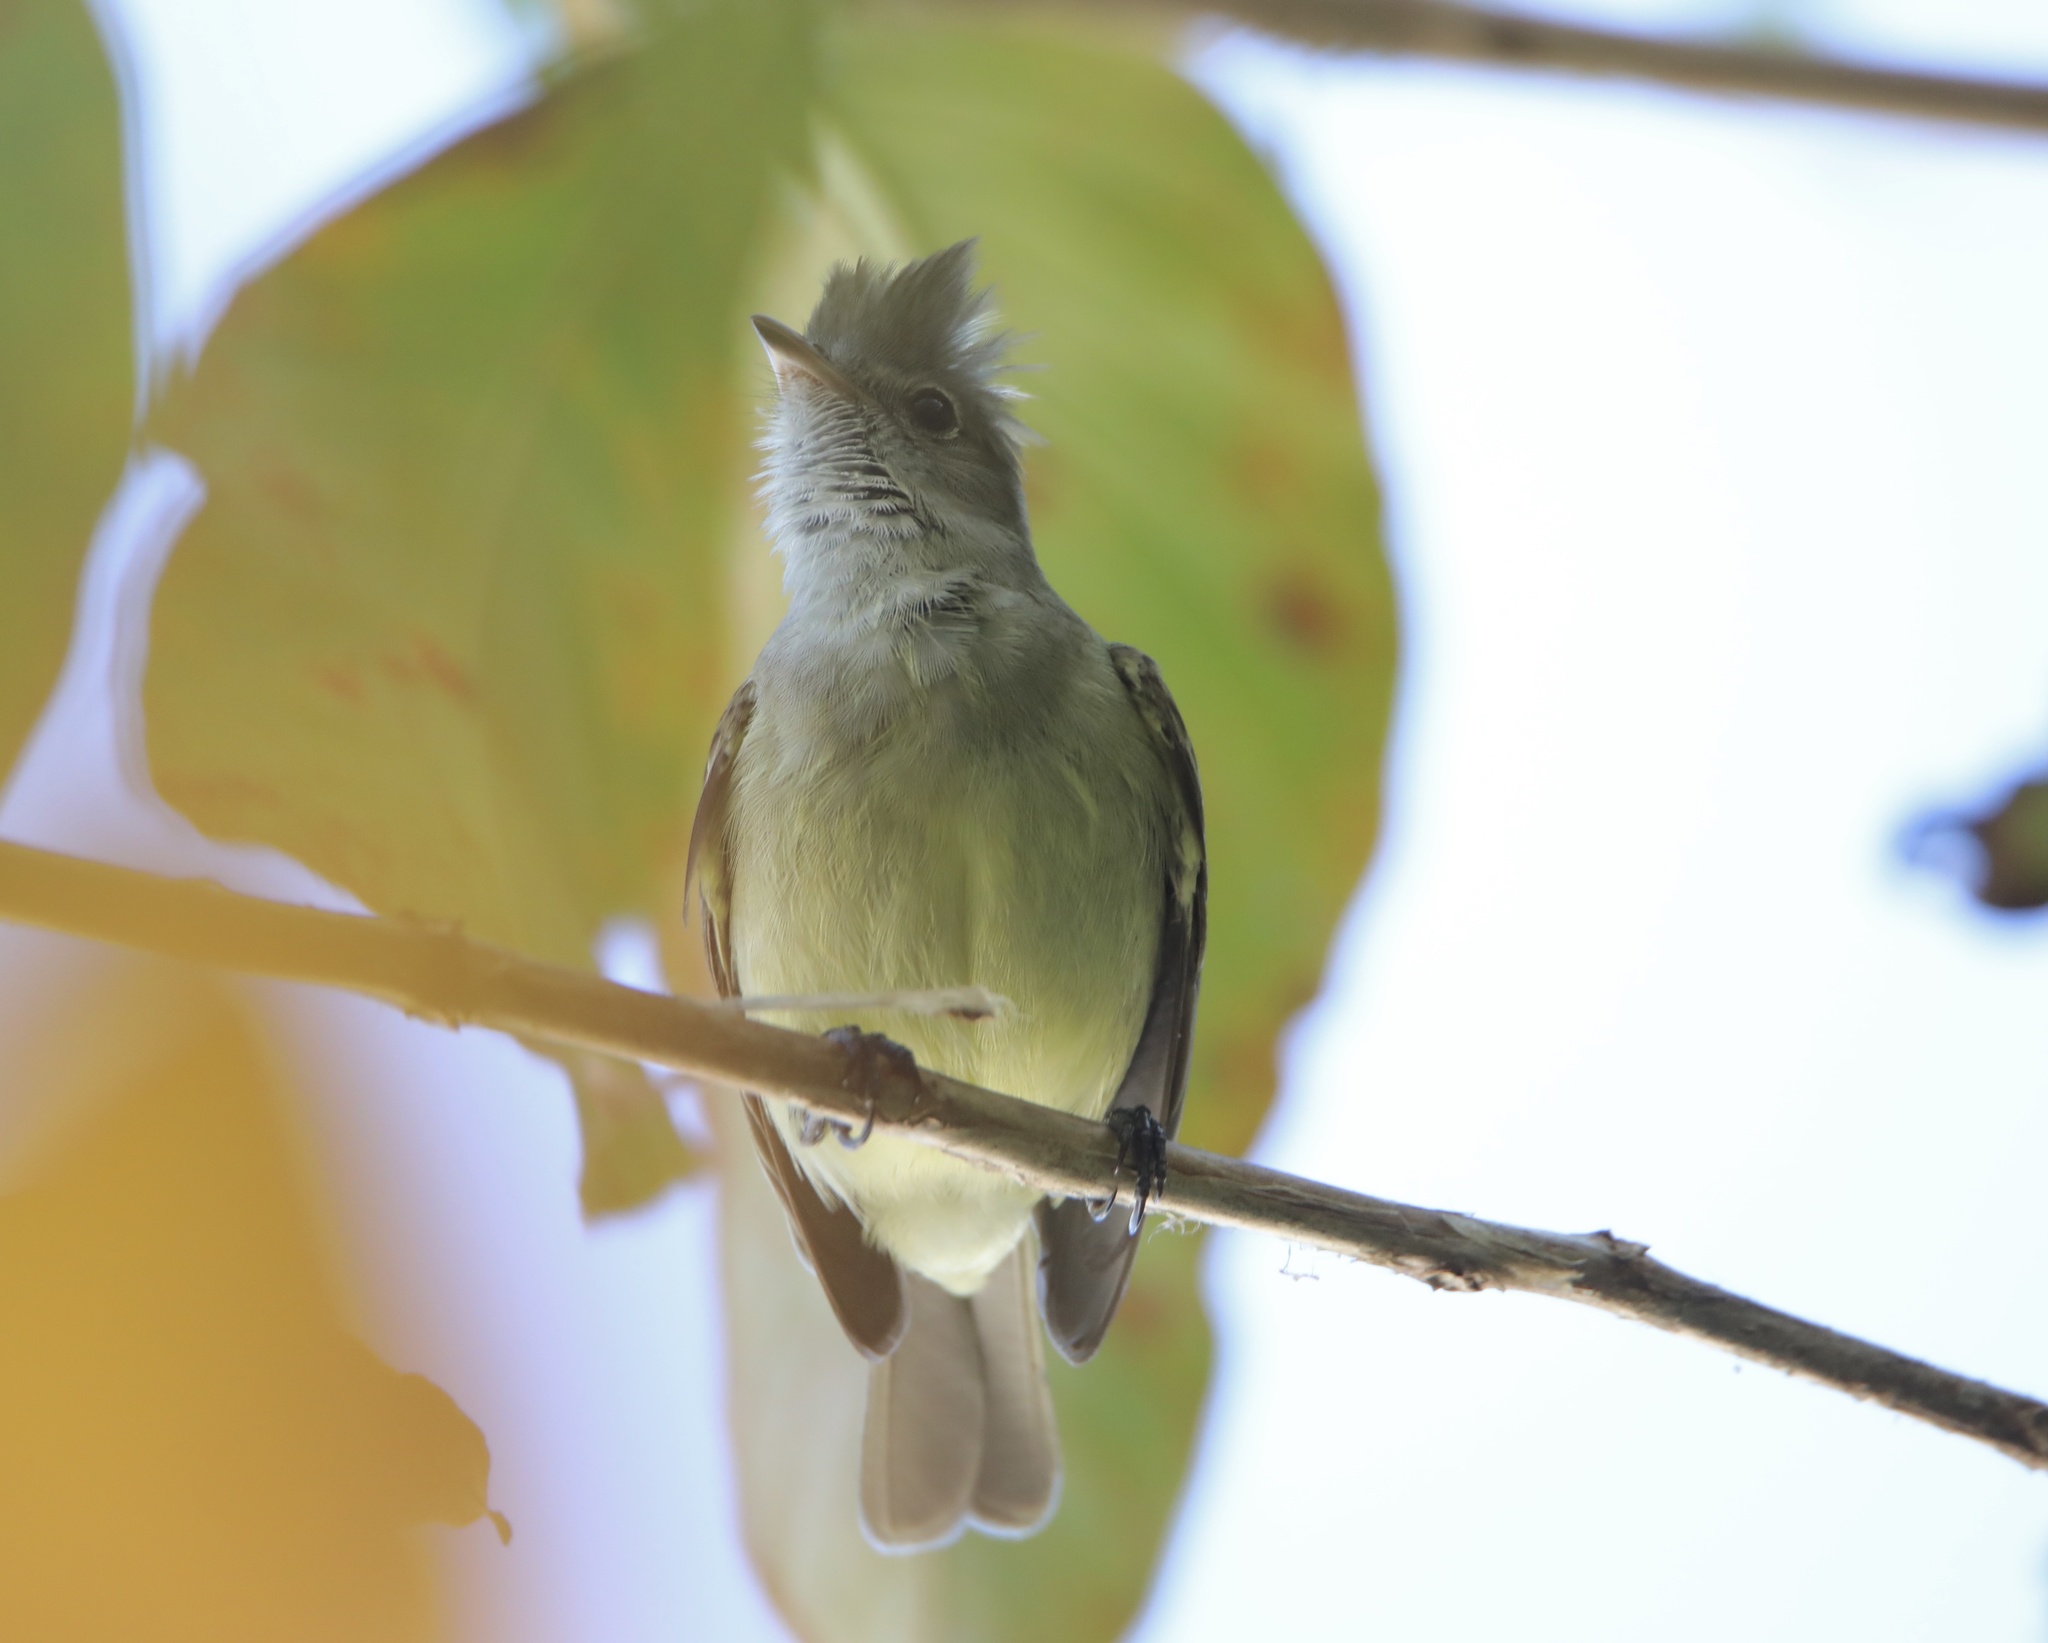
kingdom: Animalia
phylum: Chordata
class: Aves
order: Passeriformes
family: Tyrannidae
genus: Elaenia
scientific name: Elaenia flavogaster
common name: Yellow-bellied elaenia
